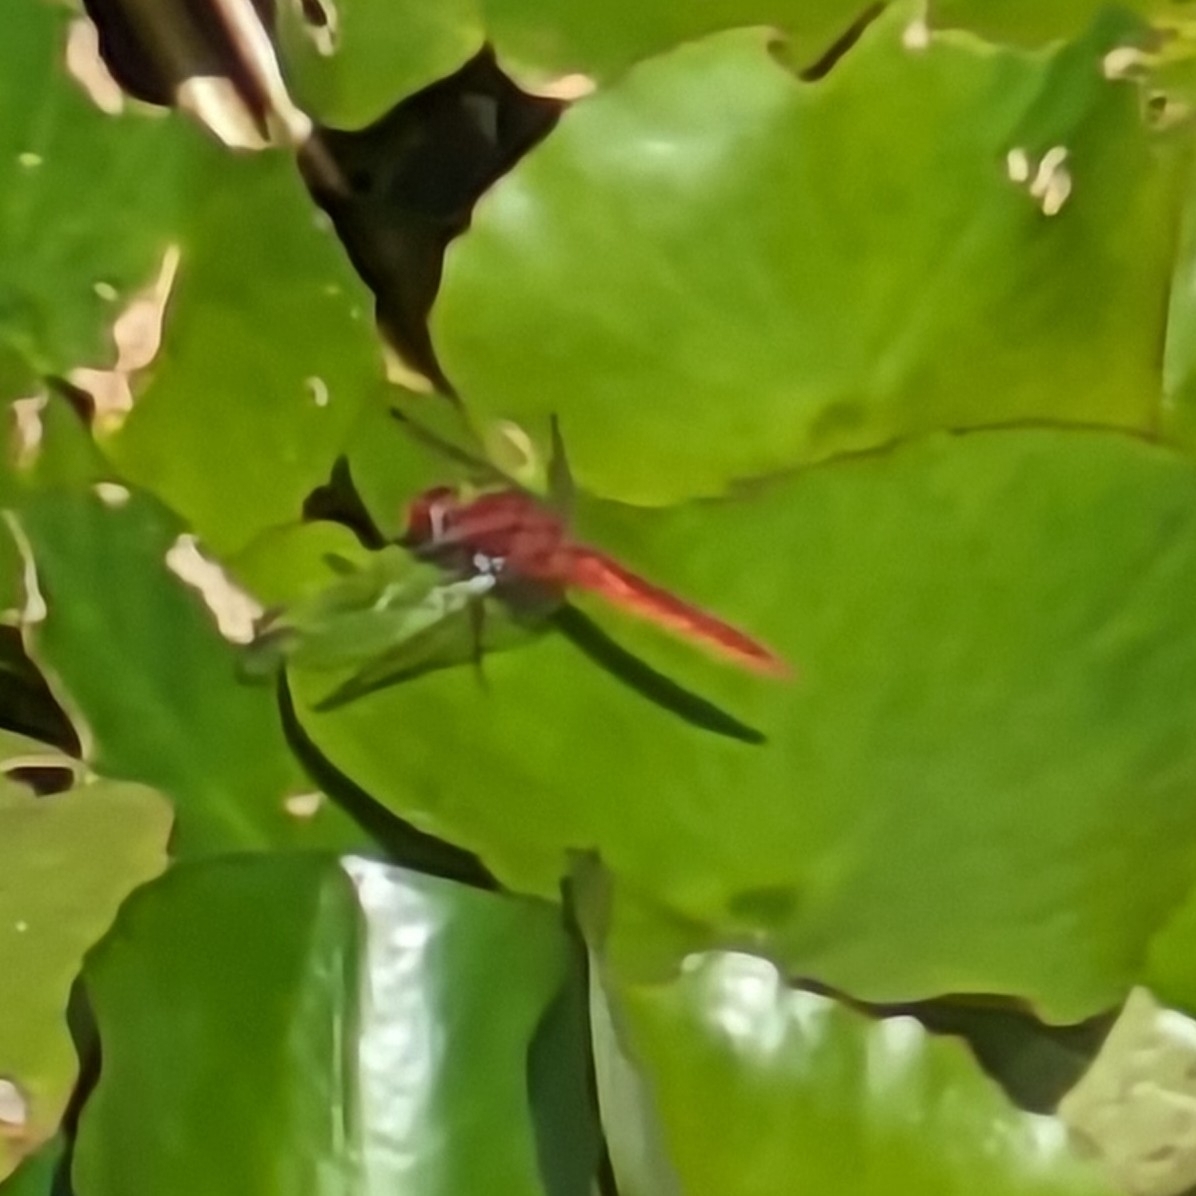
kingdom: Animalia
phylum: Arthropoda
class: Insecta
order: Odonata
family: Libellulidae
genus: Crocothemis
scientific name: Crocothemis erythraea
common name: Scarlet dragonfly
